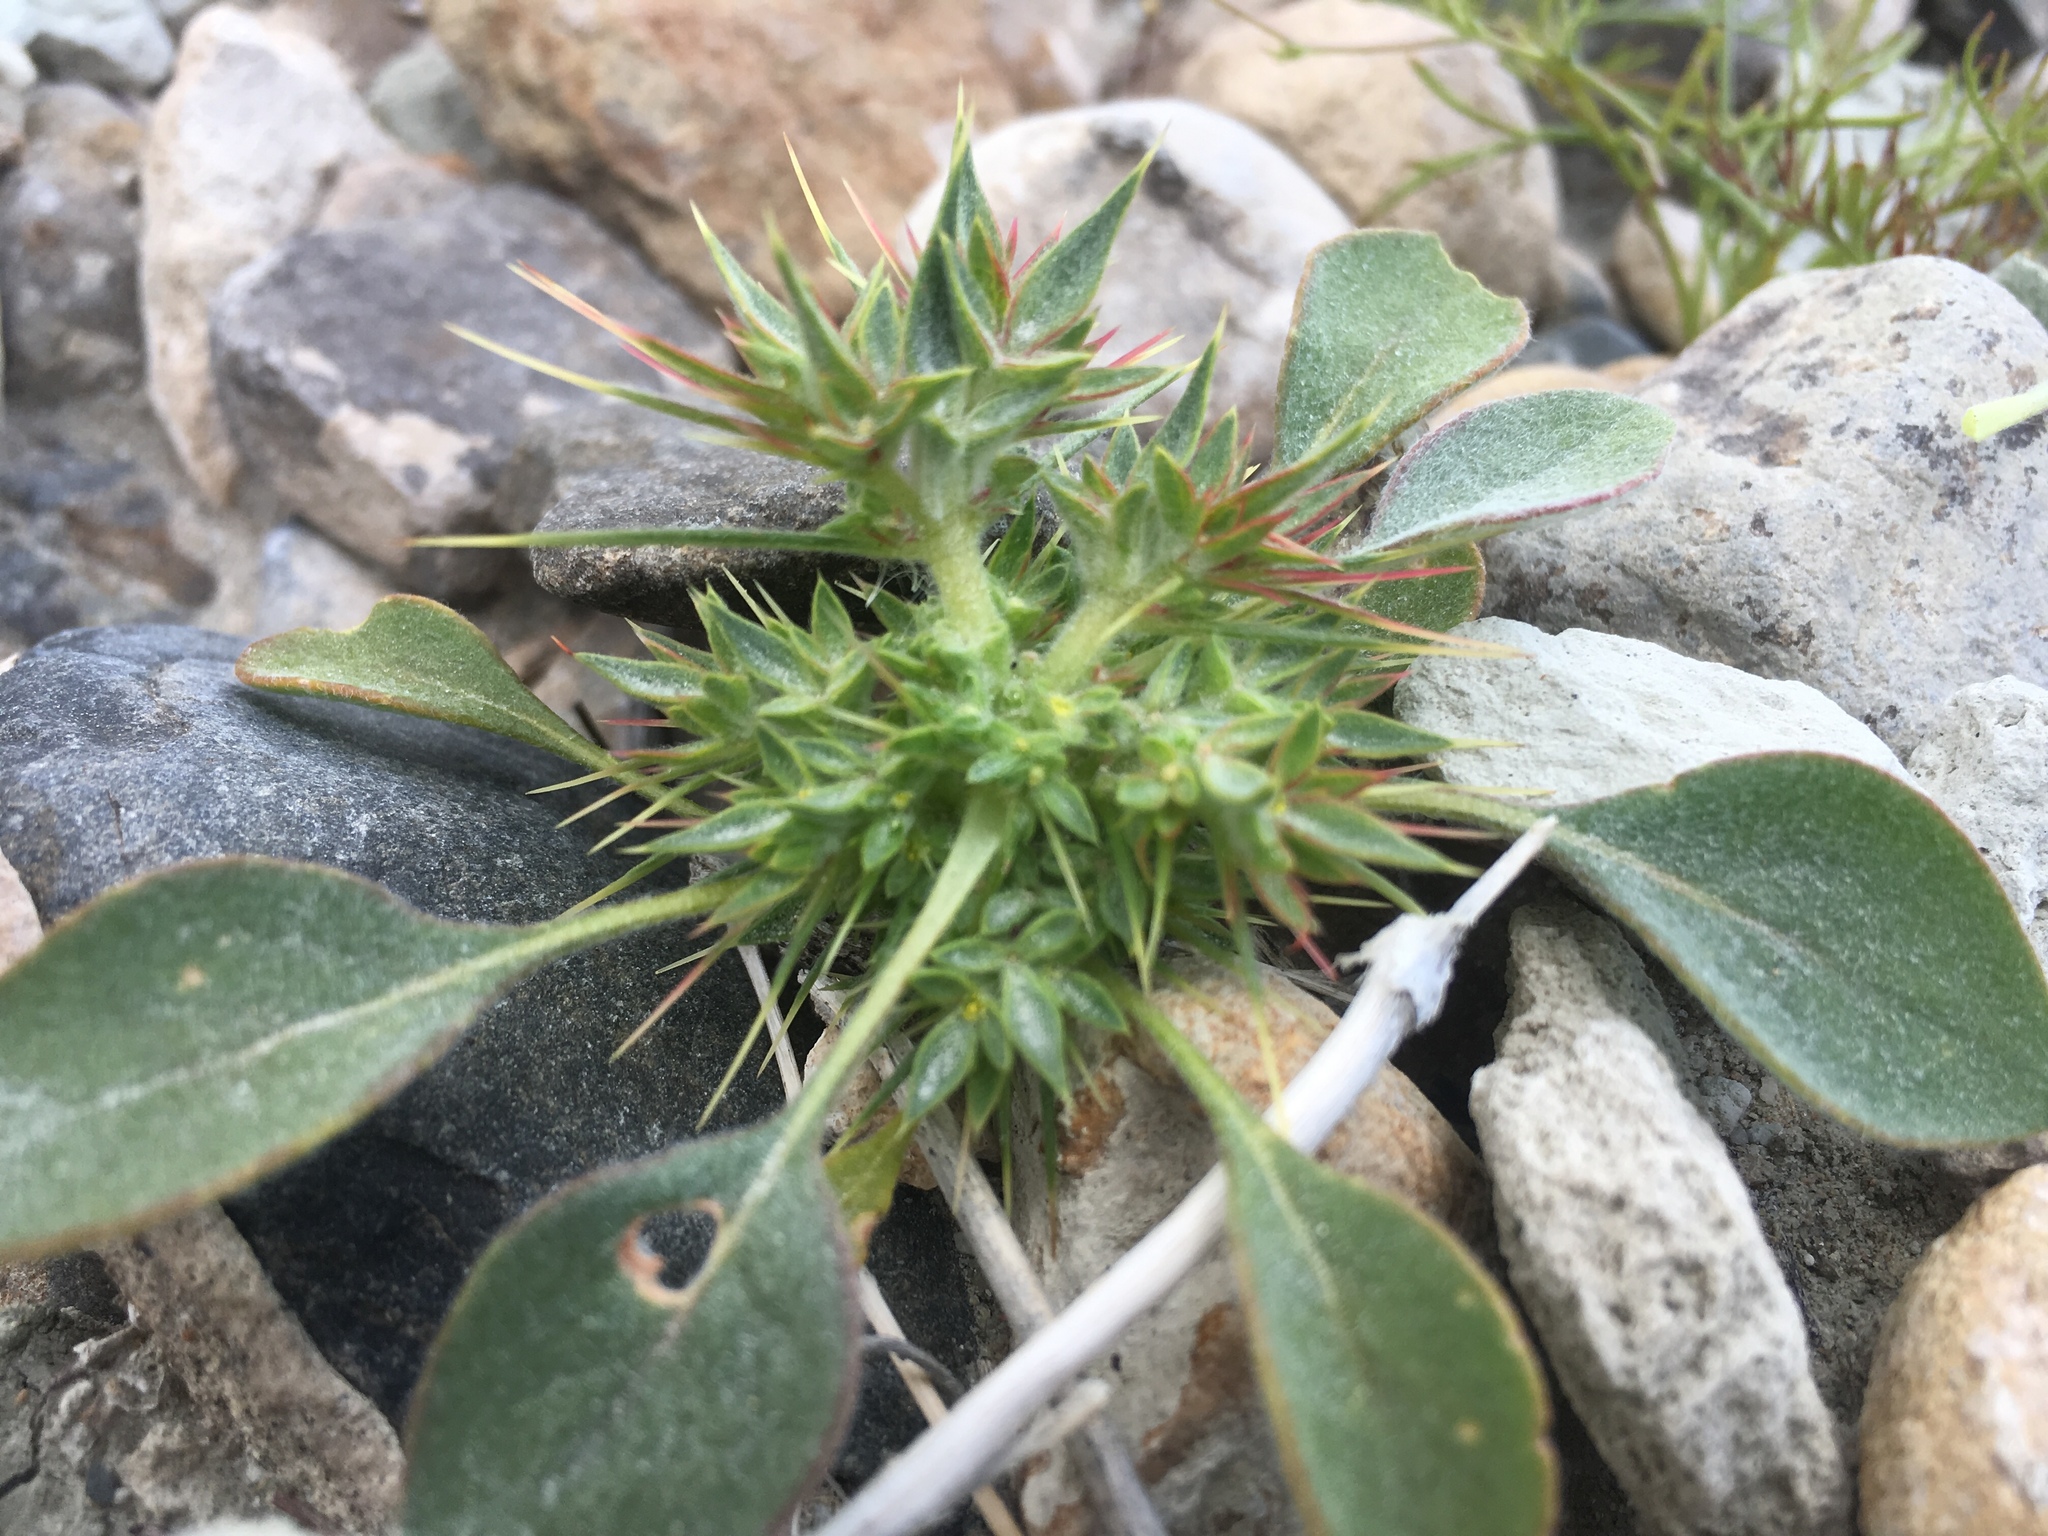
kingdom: Plantae
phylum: Tracheophyta
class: Magnoliopsida
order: Caryophyllales
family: Polygonaceae
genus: Chorizanthe
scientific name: Chorizanthe rigida
